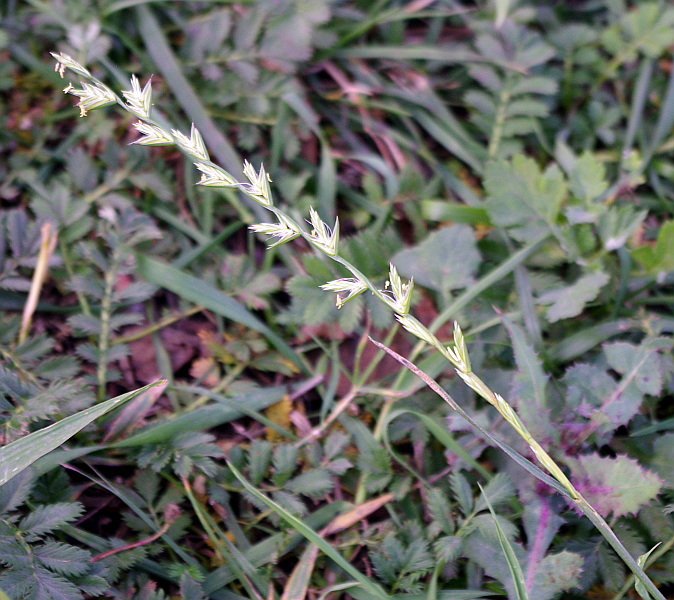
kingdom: Plantae
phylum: Tracheophyta
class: Liliopsida
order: Poales
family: Poaceae
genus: Lolium
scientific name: Lolium perenne
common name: Perennial ryegrass
